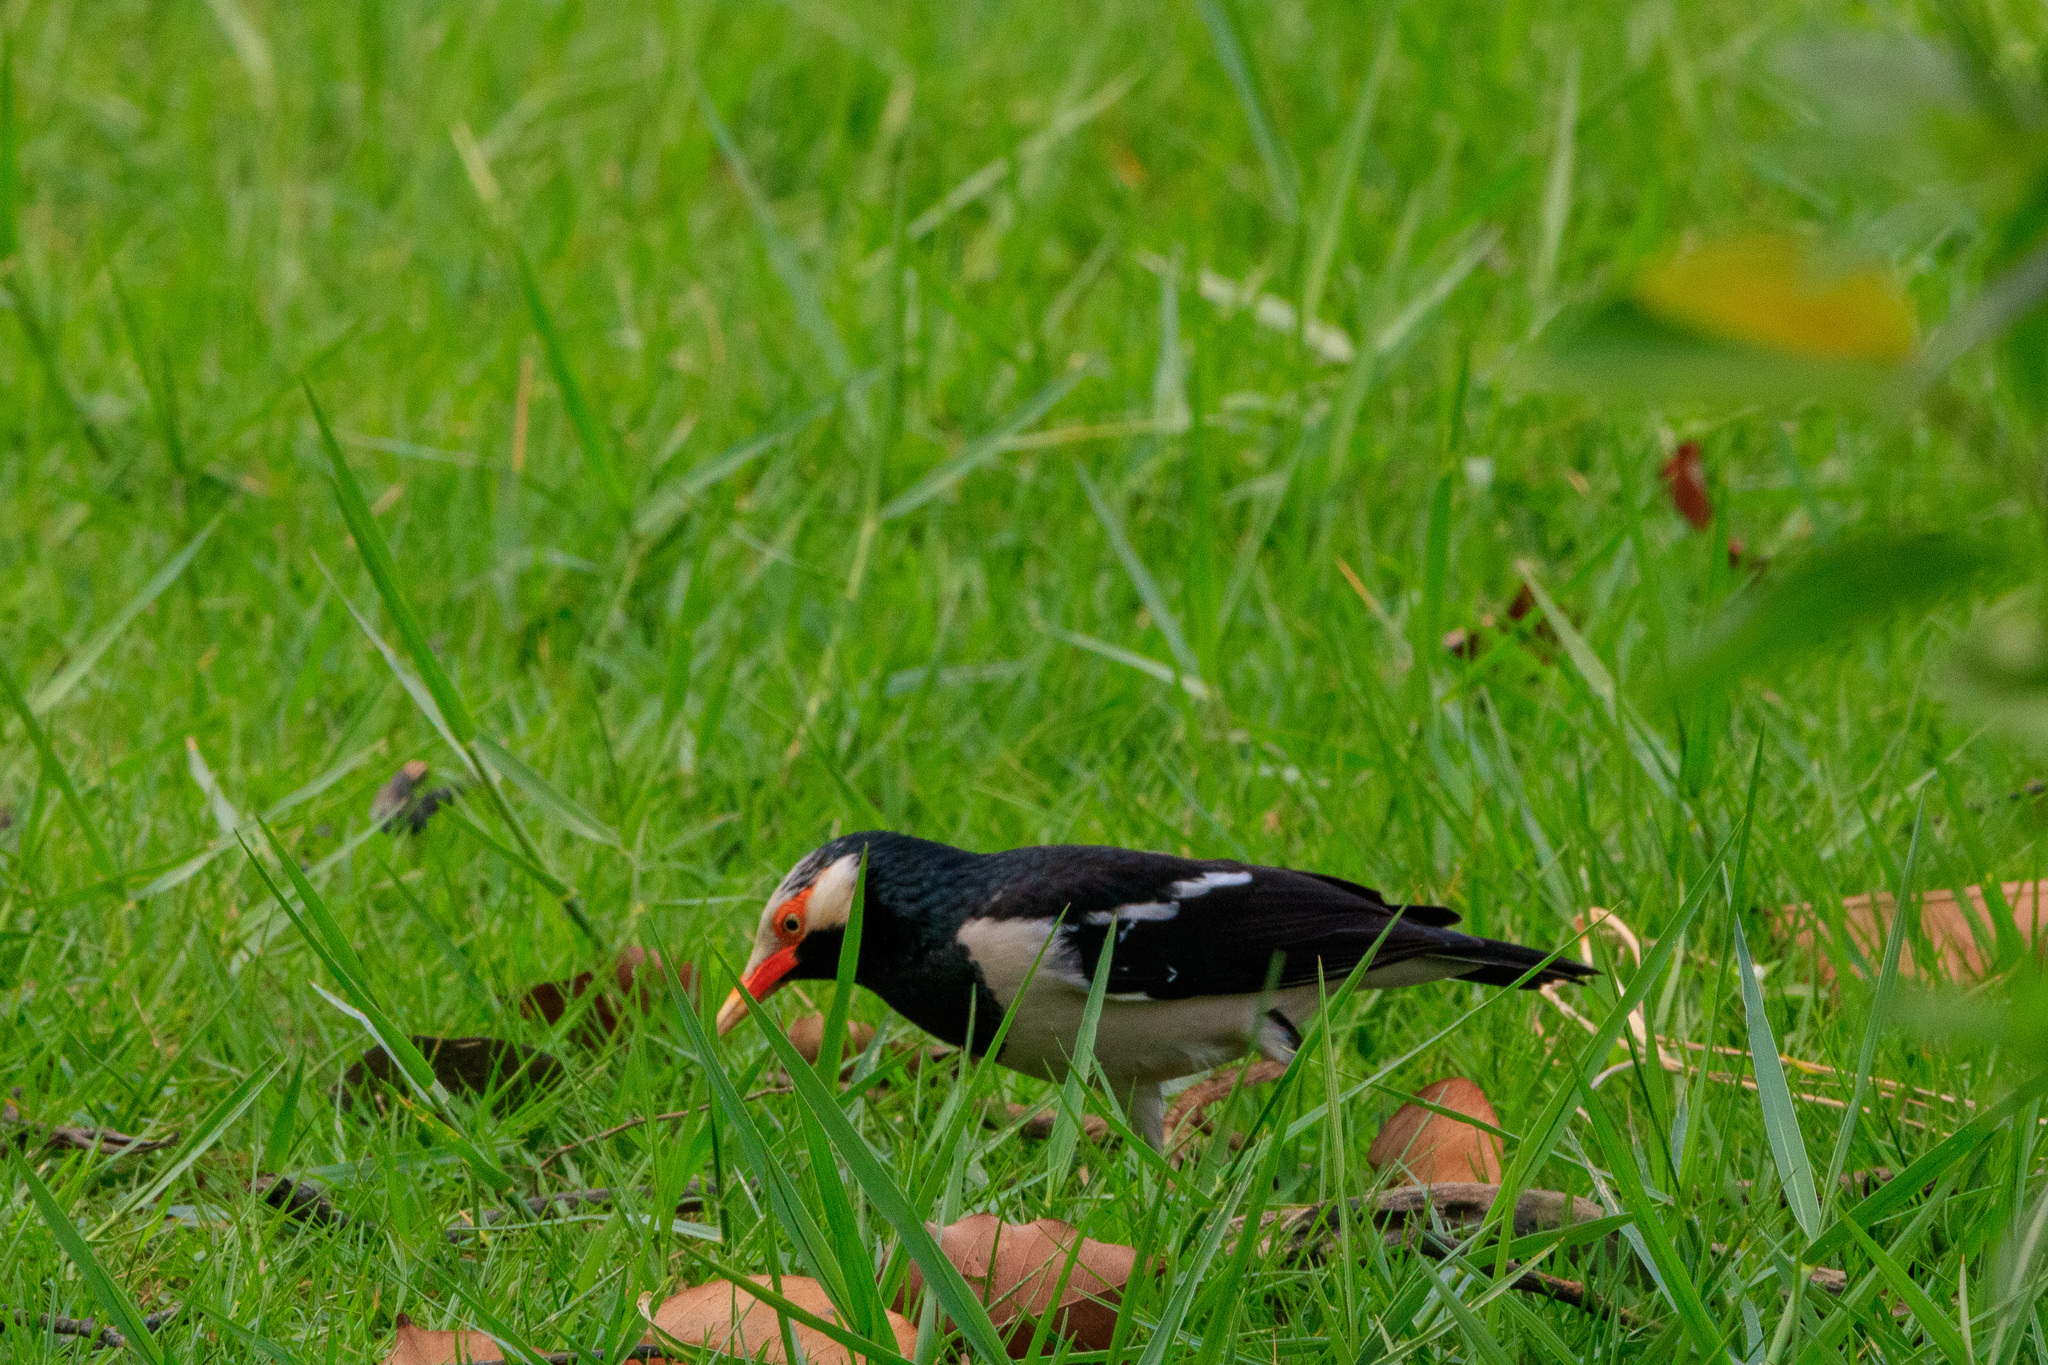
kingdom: Animalia
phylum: Chordata
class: Aves
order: Passeriformes
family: Sturnidae
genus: Gracupica
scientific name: Gracupica contra
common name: Pied myna
